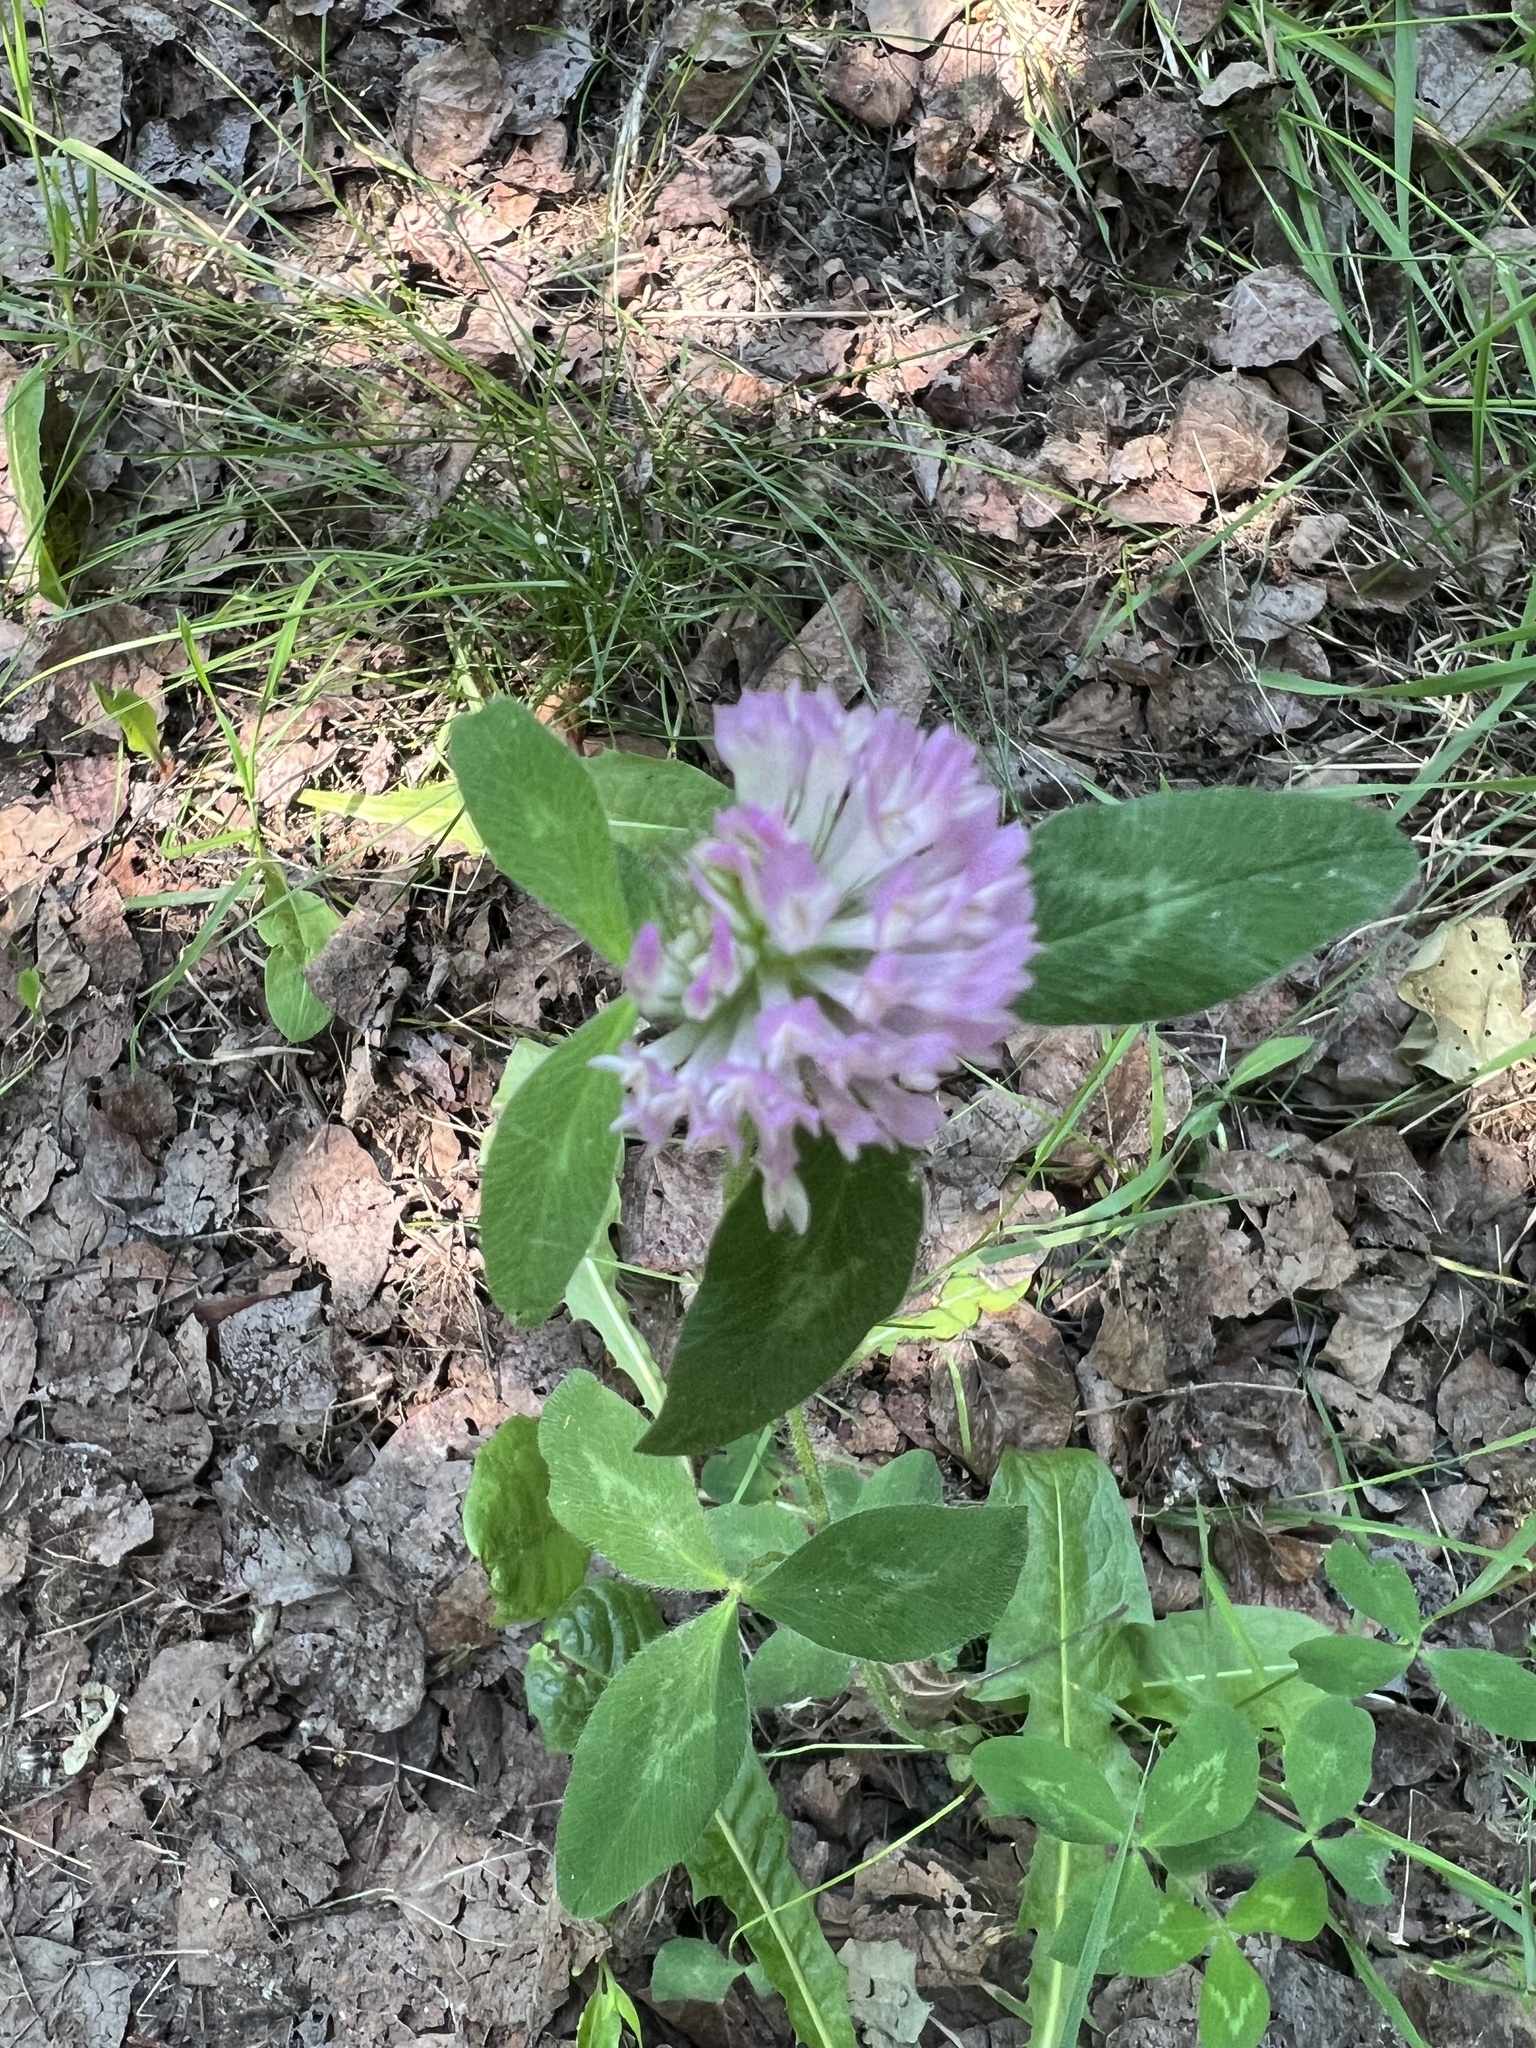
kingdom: Plantae
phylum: Tracheophyta
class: Magnoliopsida
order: Fabales
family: Fabaceae
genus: Trifolium
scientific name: Trifolium pratense
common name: Red clover
